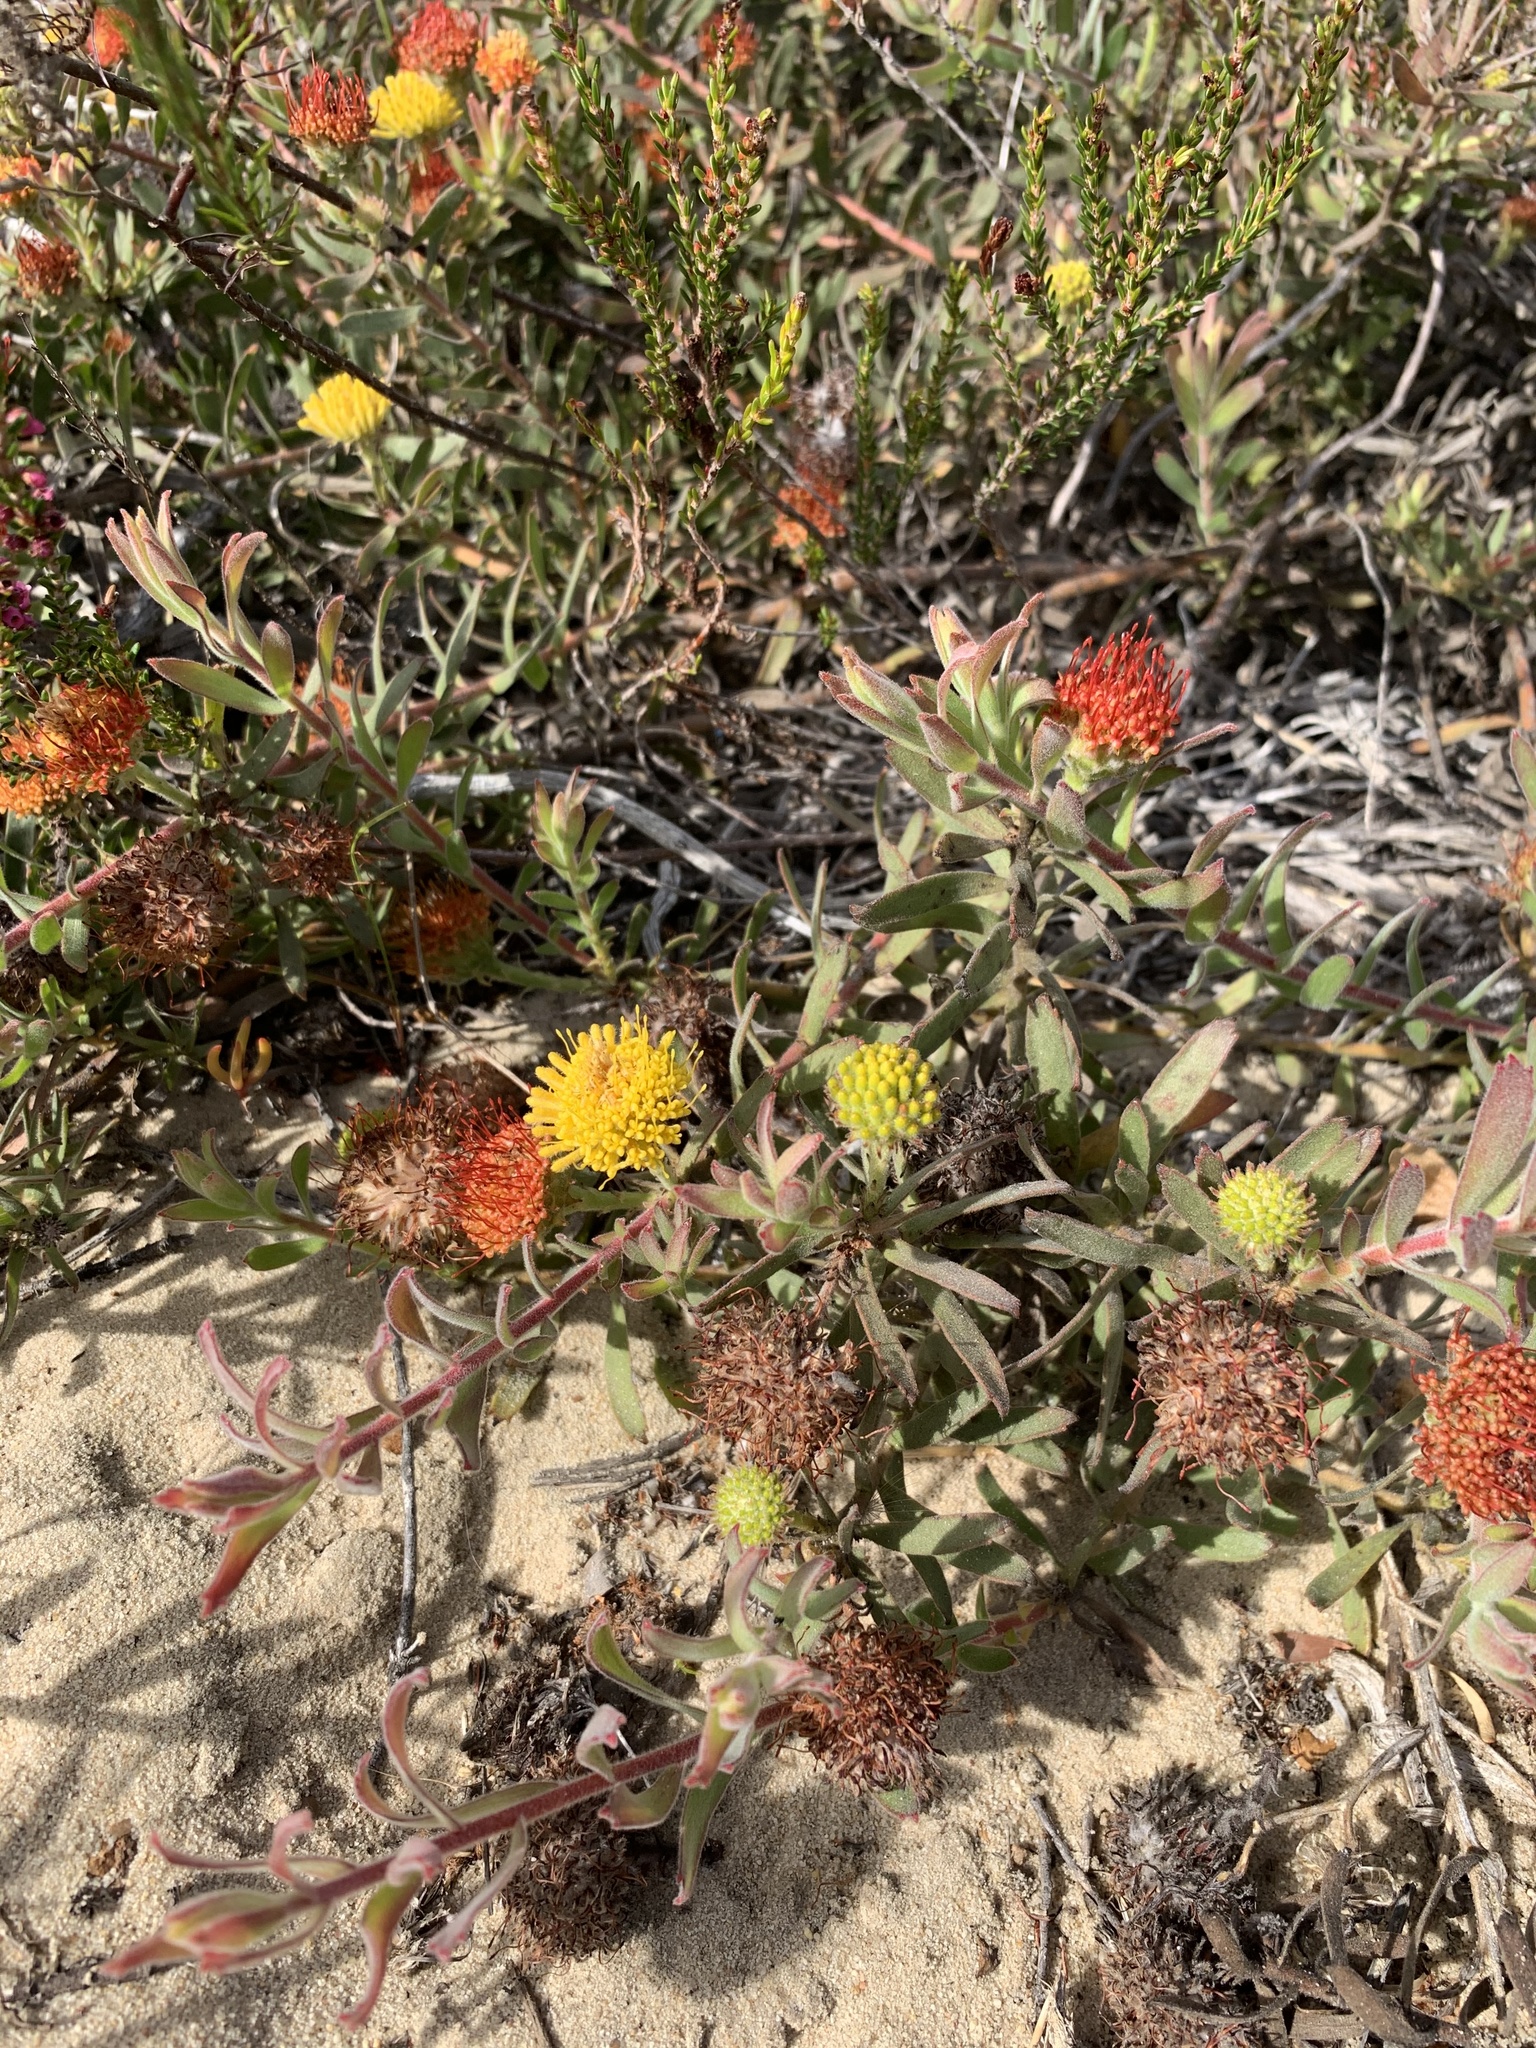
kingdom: Plantae
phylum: Tracheophyta
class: Magnoliopsida
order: Proteales
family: Proteaceae
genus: Leucospermum
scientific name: Leucospermum prostratum
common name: Yellow-trailing pincushion
